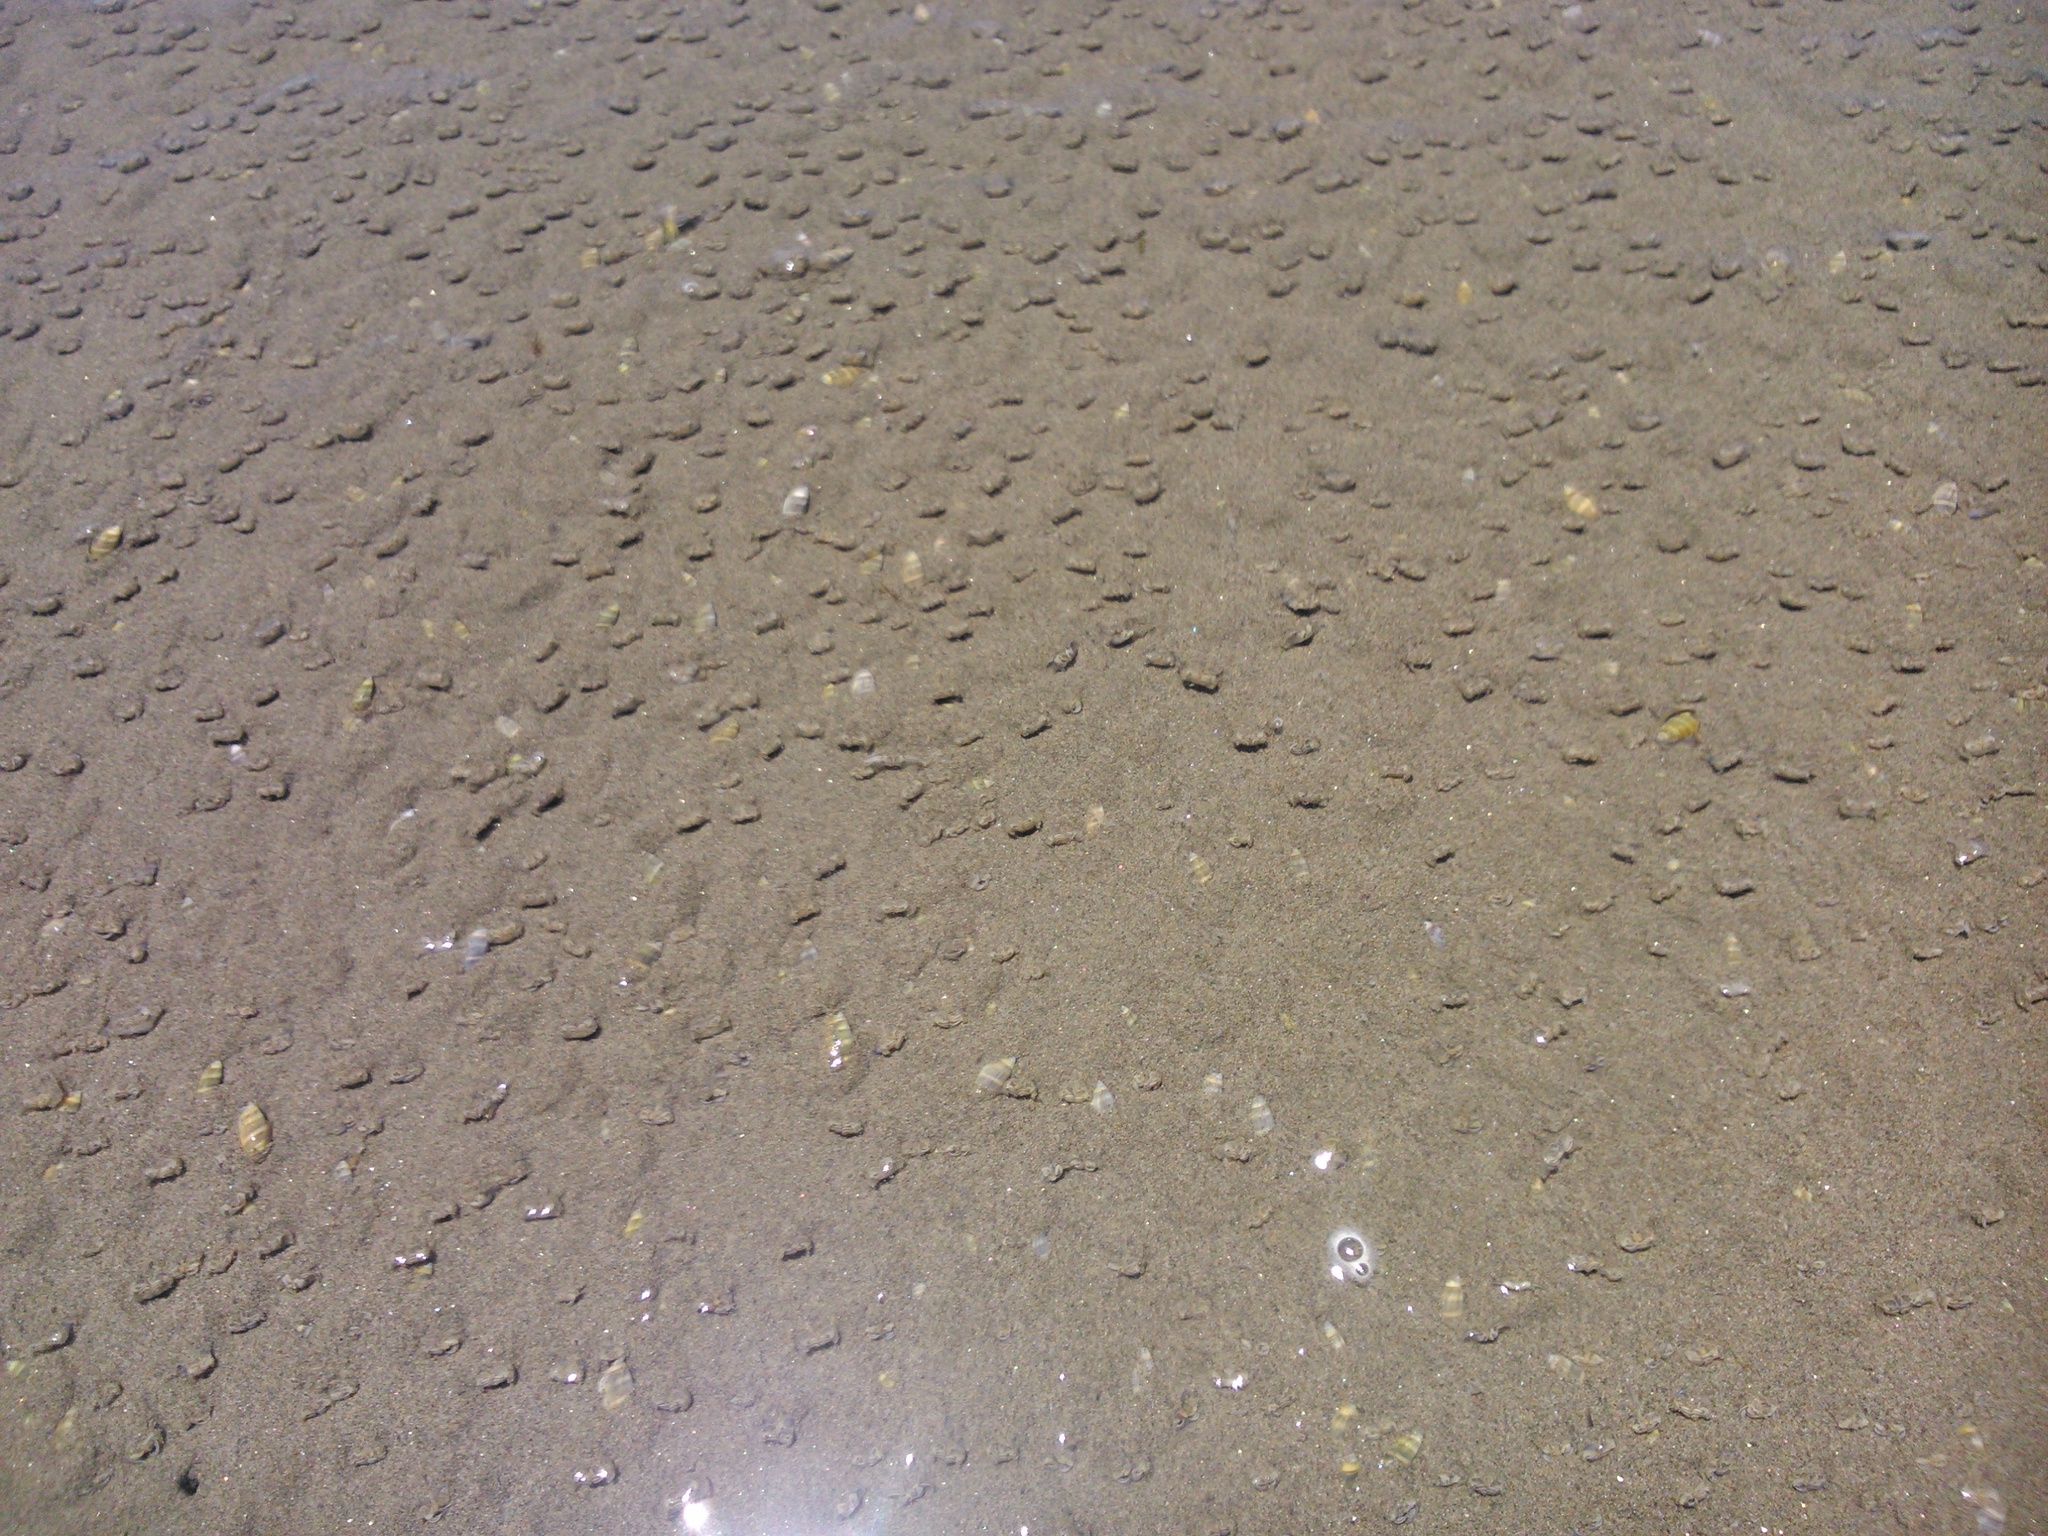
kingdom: Animalia
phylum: Mollusca
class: Gastropoda
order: Neogastropoda
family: Olividae
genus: Pachyoliva
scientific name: Pachyoliva semistriata
